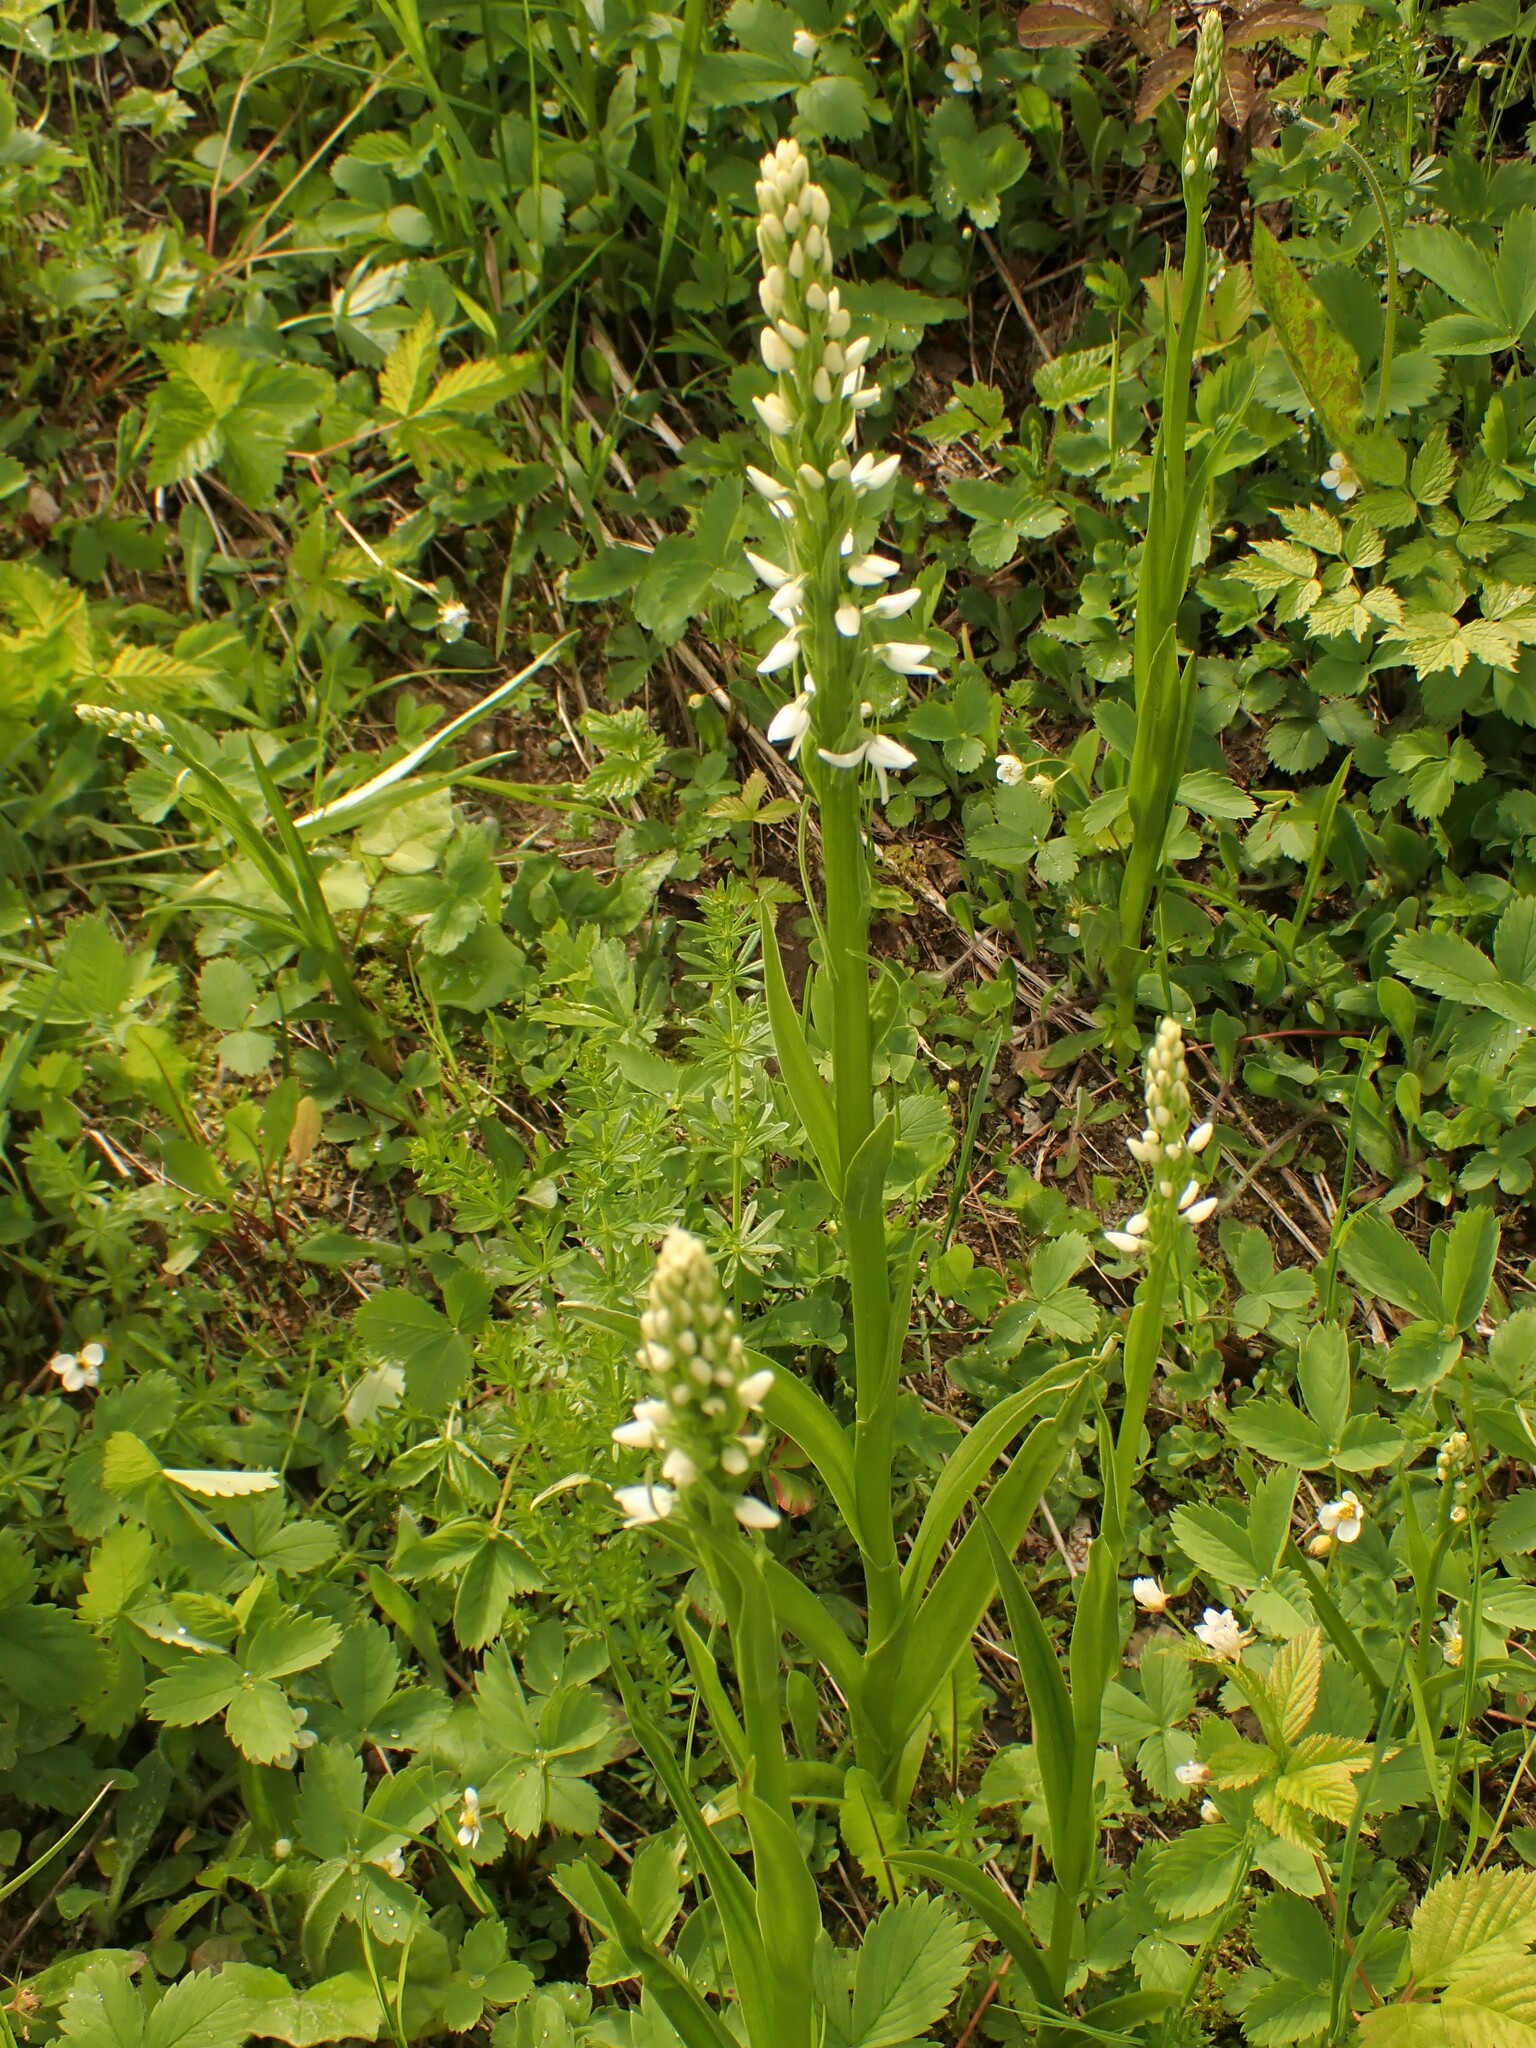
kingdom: Plantae
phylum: Tracheophyta
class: Liliopsida
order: Asparagales
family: Orchidaceae
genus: Platanthera
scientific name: Platanthera dilatata
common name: Bog candles
